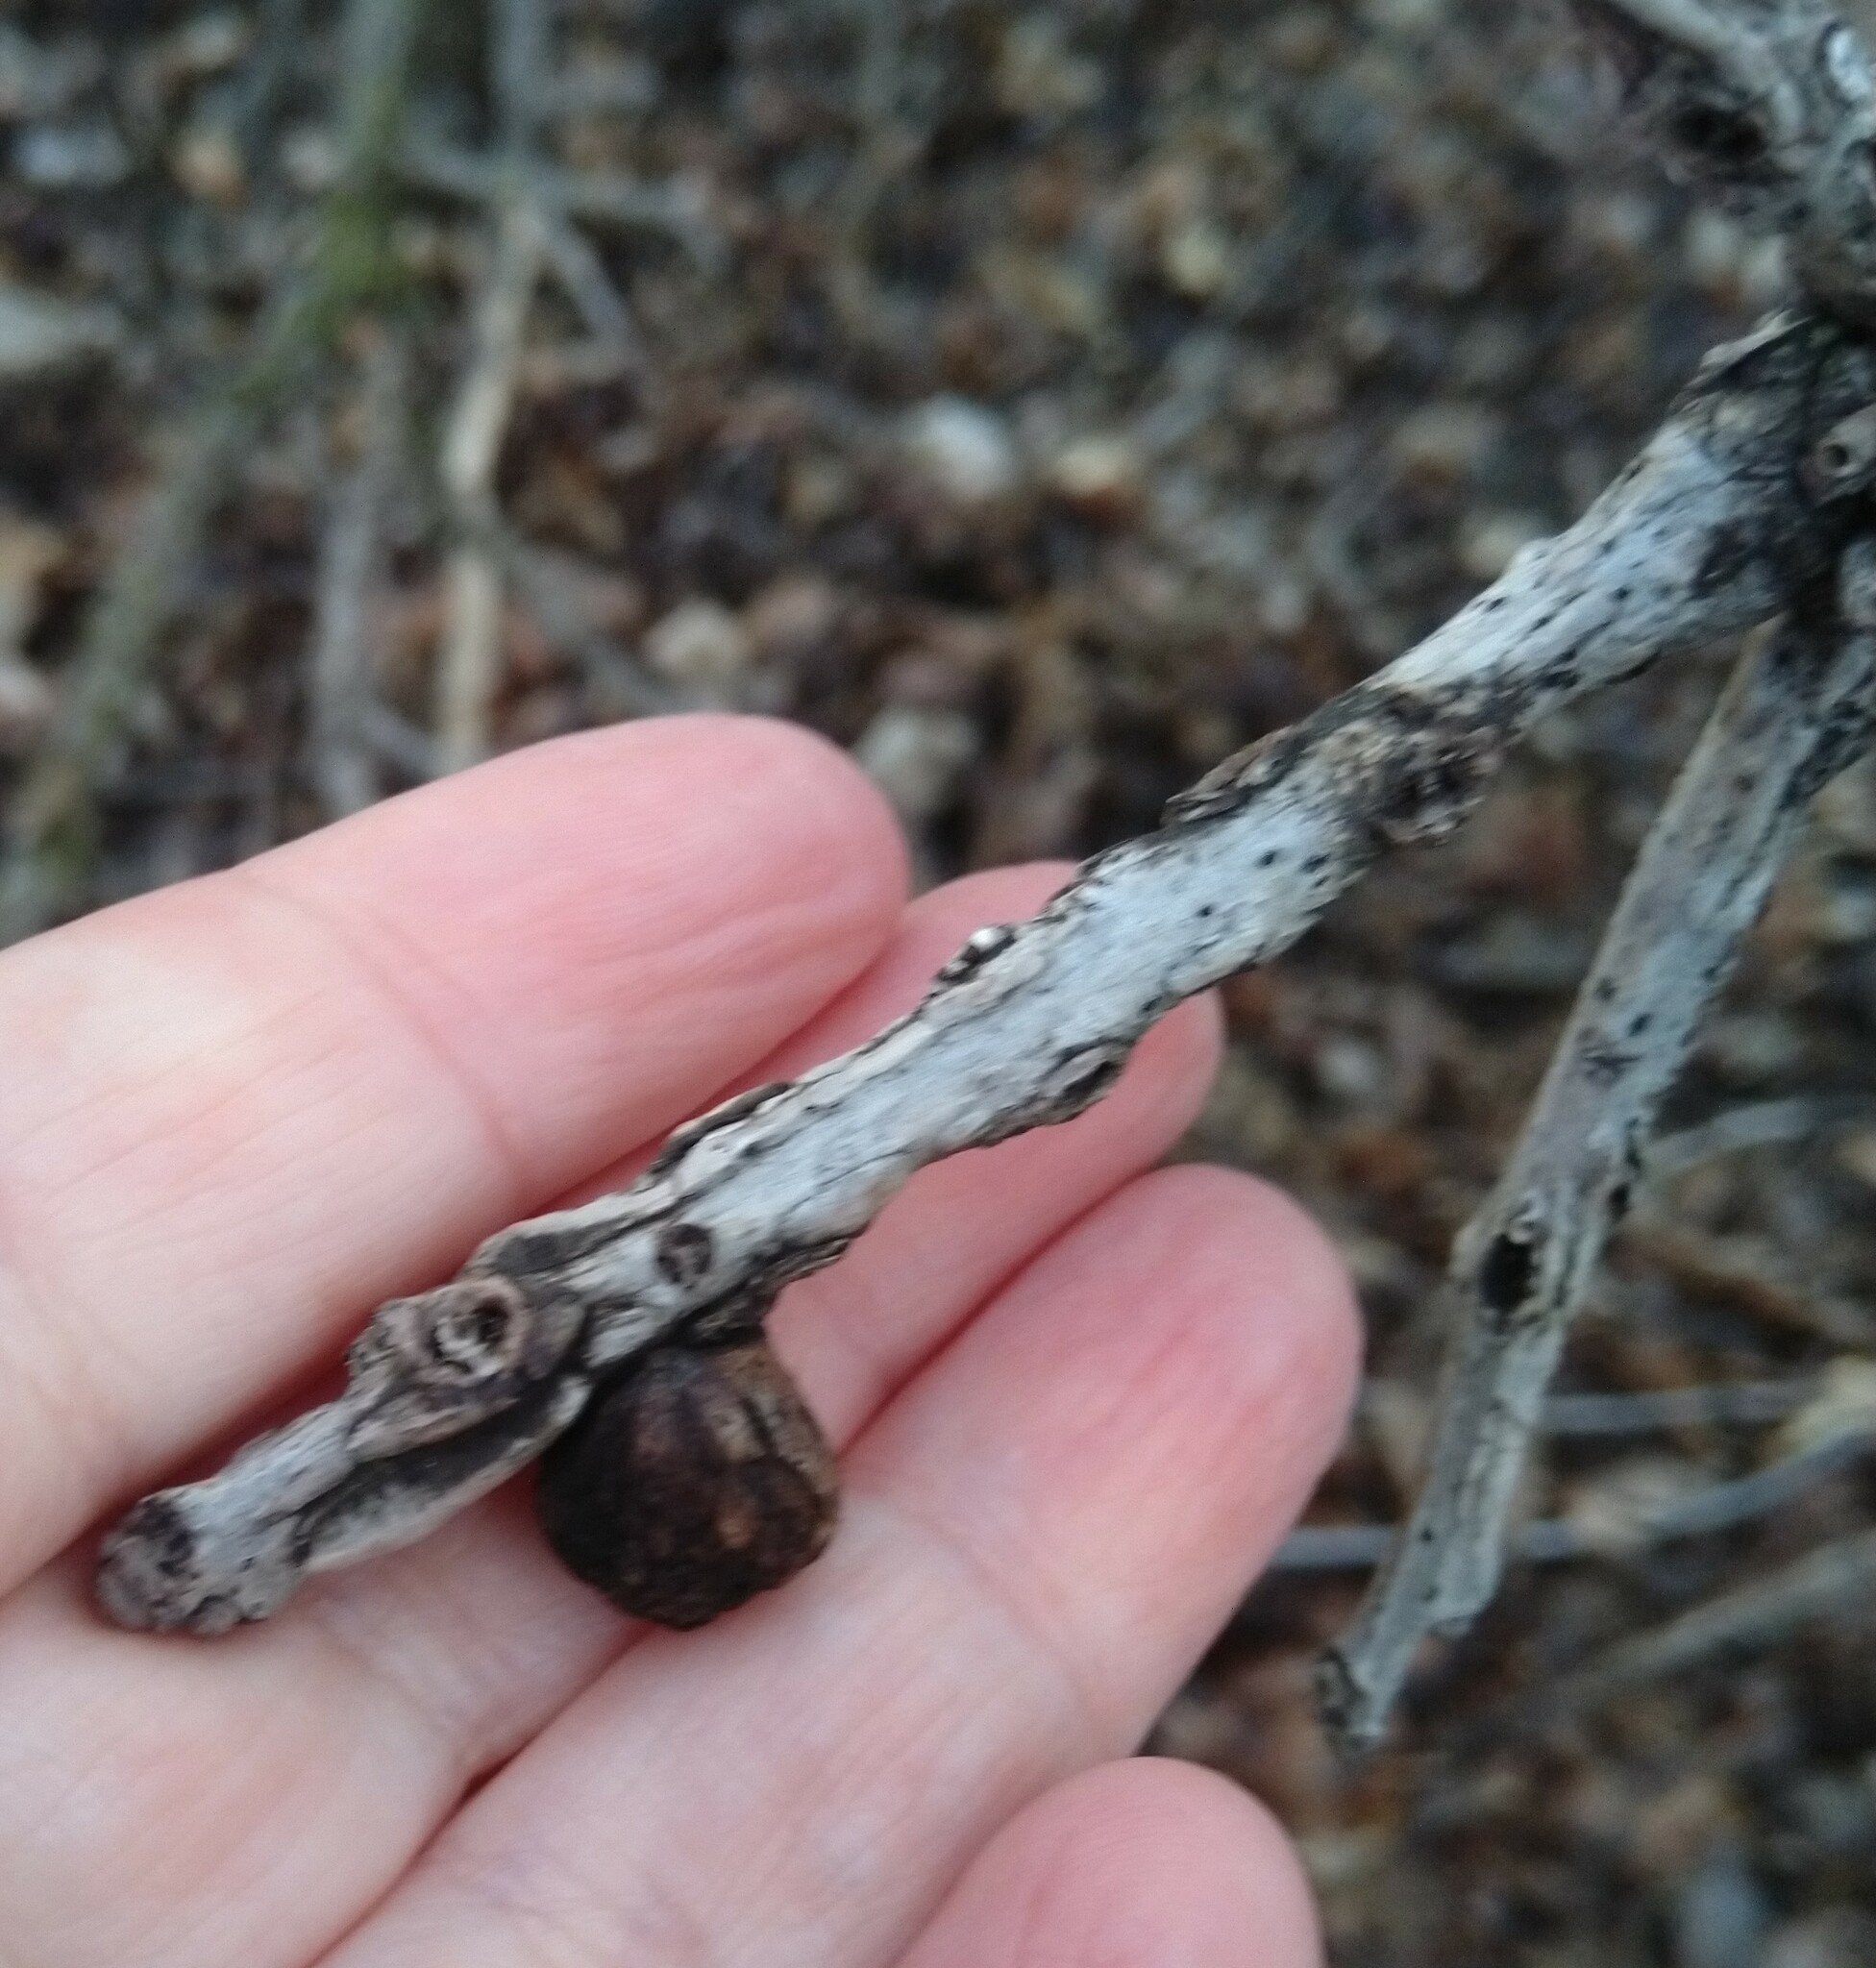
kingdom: Animalia
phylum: Arthropoda
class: Insecta
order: Hymenoptera
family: Cynipidae
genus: Disholcaspis
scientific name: Disholcaspis
